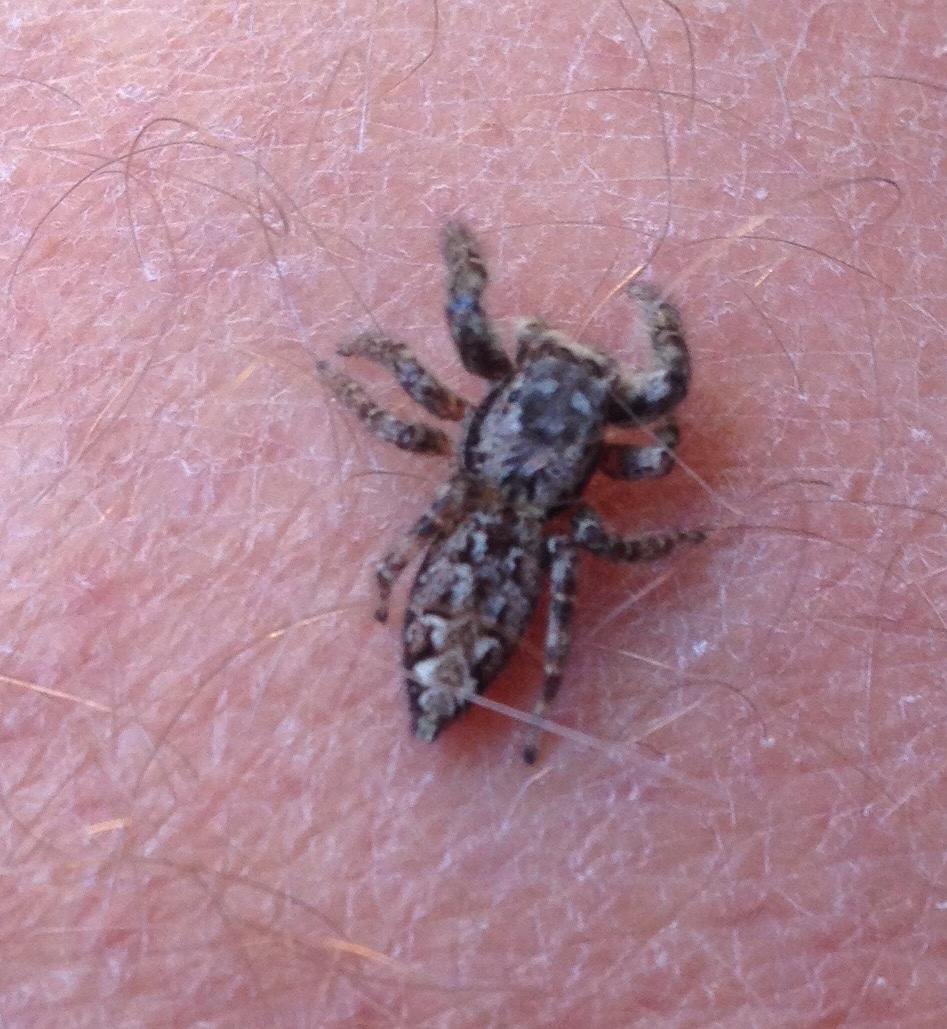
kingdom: Animalia
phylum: Arthropoda
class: Arachnida
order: Araneae
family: Salticidae
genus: Marpissa
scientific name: Marpissa muscosa
